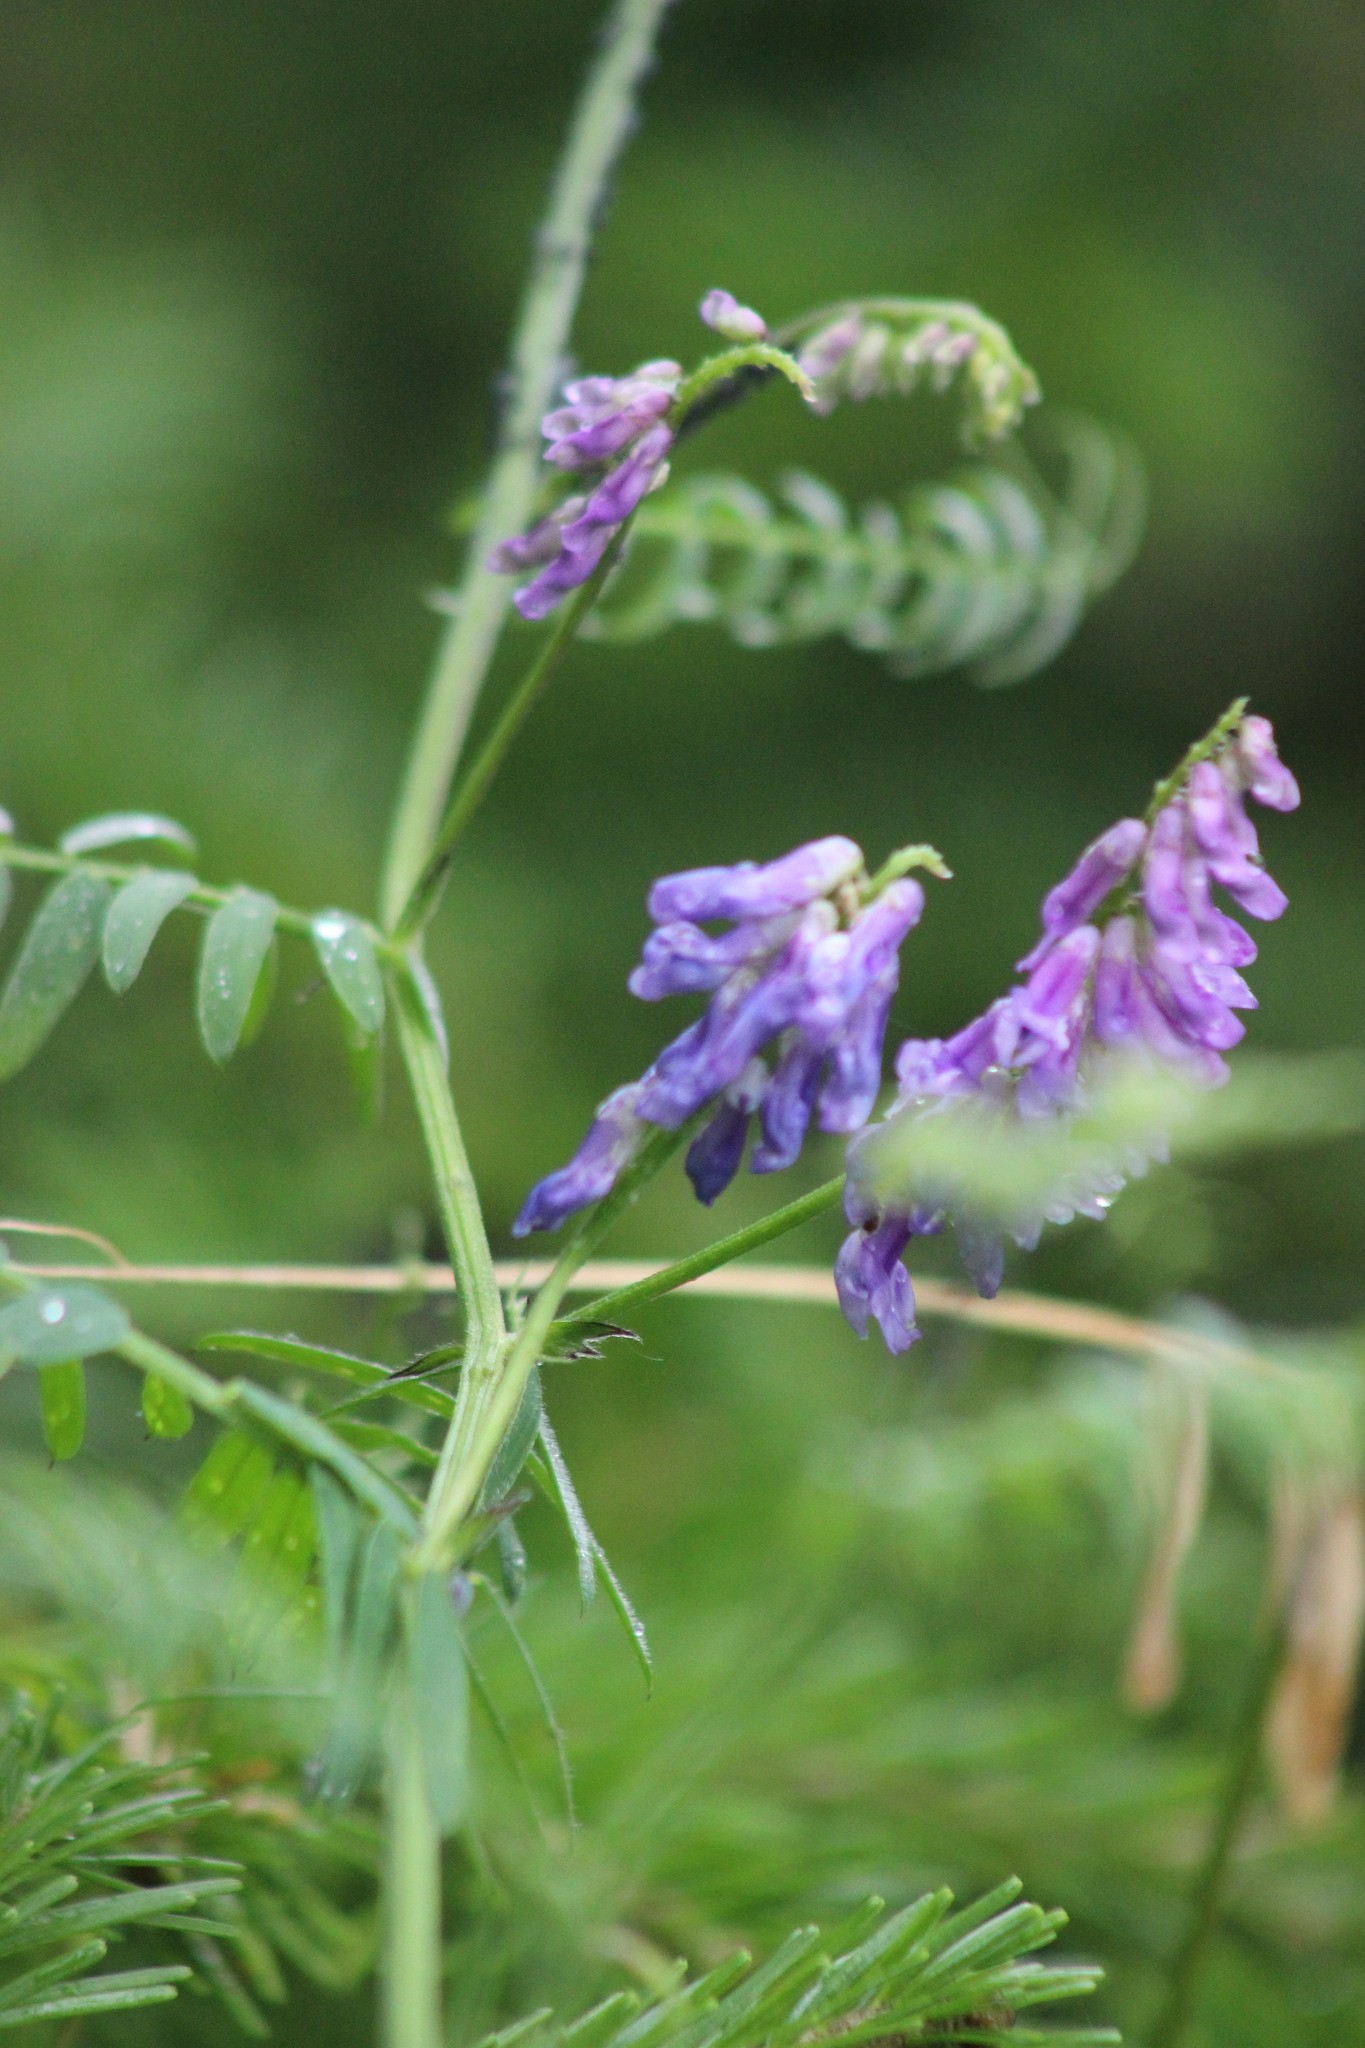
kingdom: Plantae
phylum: Tracheophyta
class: Magnoliopsida
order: Fabales
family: Fabaceae
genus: Vicia
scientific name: Vicia cracca
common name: Bird vetch
